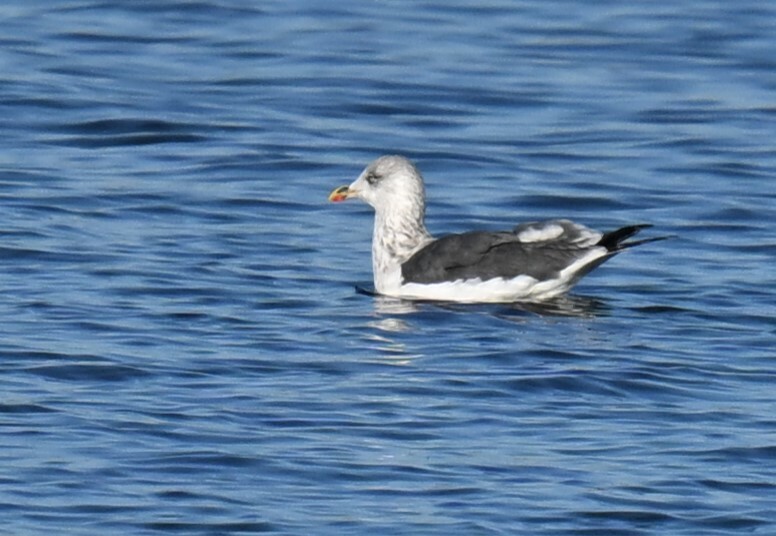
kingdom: Animalia
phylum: Chordata
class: Aves
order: Charadriiformes
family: Laridae
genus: Larus
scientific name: Larus fuscus
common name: Lesser black-backed gull
